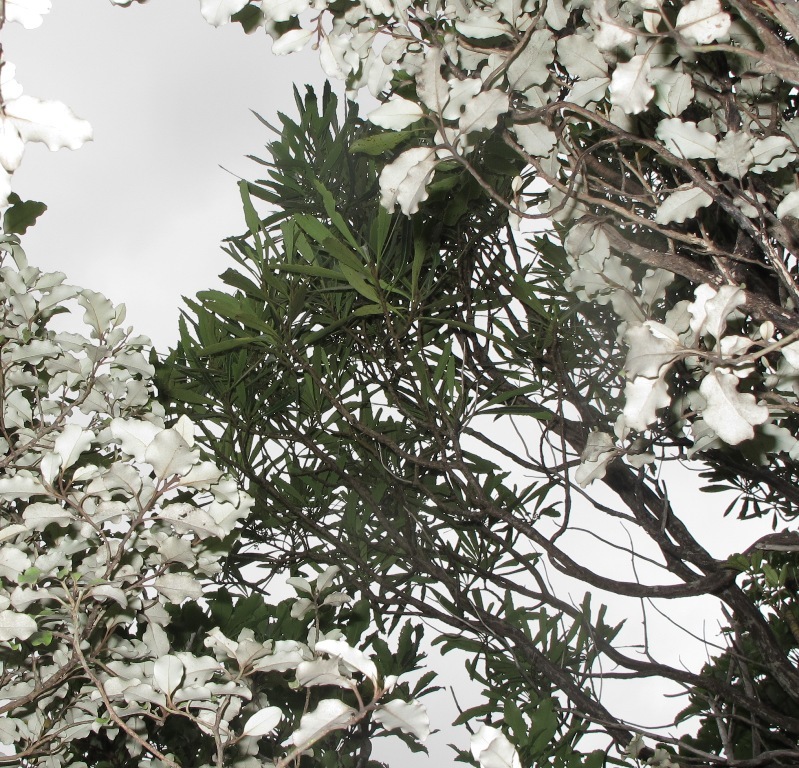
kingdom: Plantae
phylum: Tracheophyta
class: Magnoliopsida
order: Apiales
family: Araliaceae
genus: Pseudopanax
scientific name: Pseudopanax crassifolius
